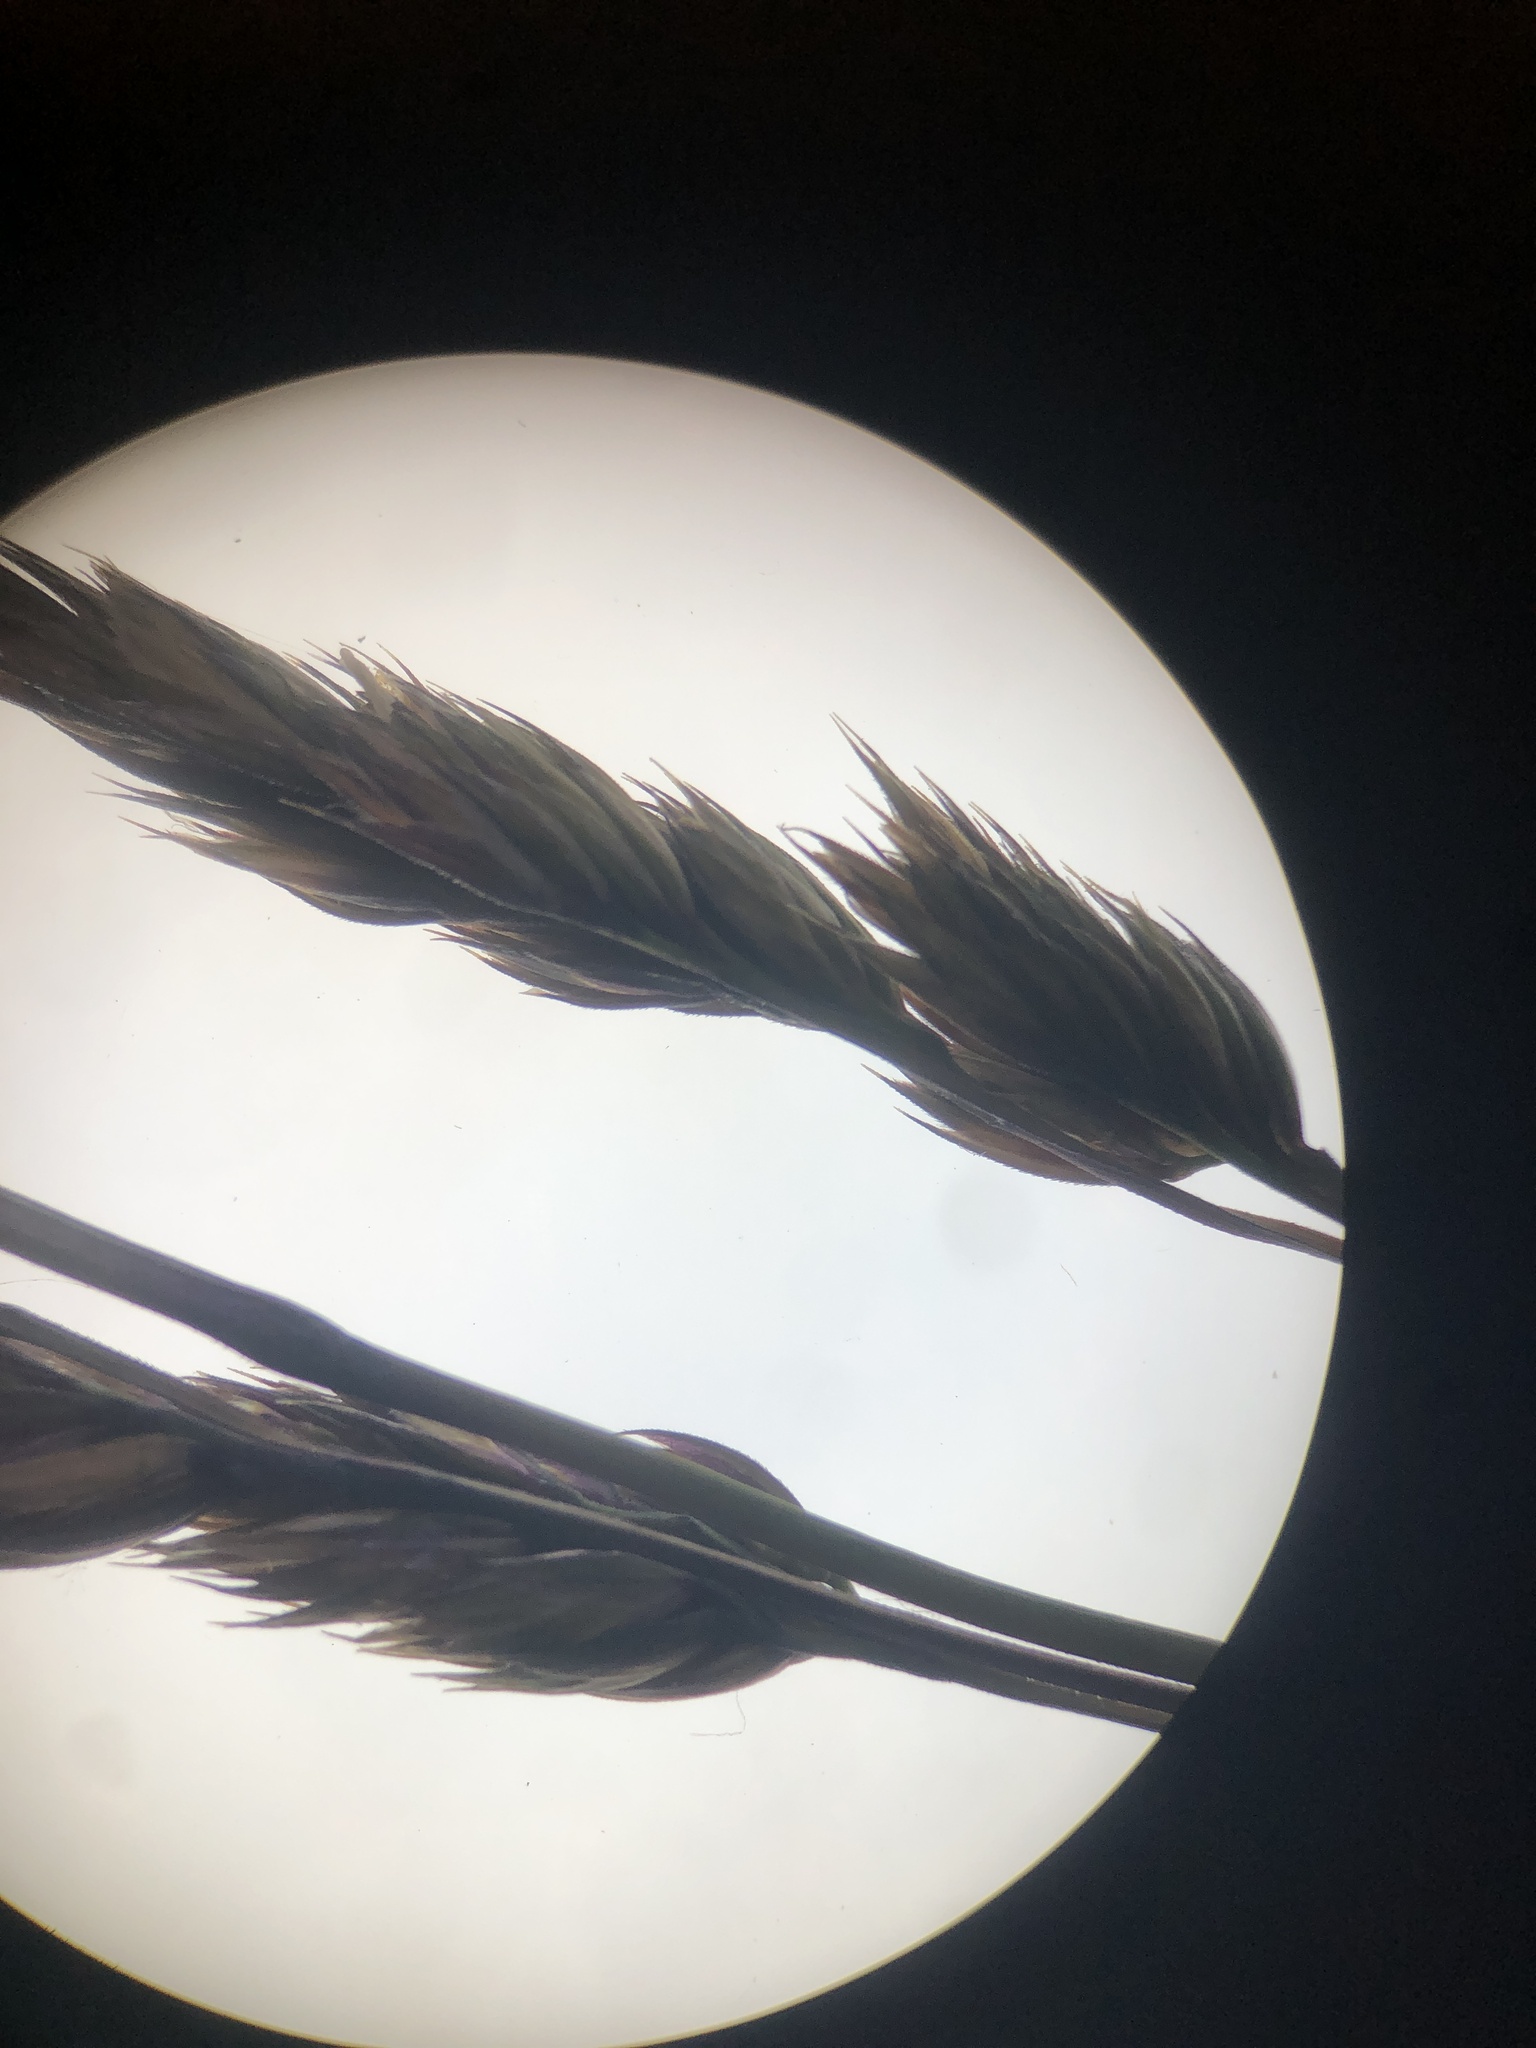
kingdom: Plantae
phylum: Tracheophyta
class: Liliopsida
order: Poales
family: Poaceae
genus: Dactylis
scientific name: Dactylis glomerata
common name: Orchardgrass
